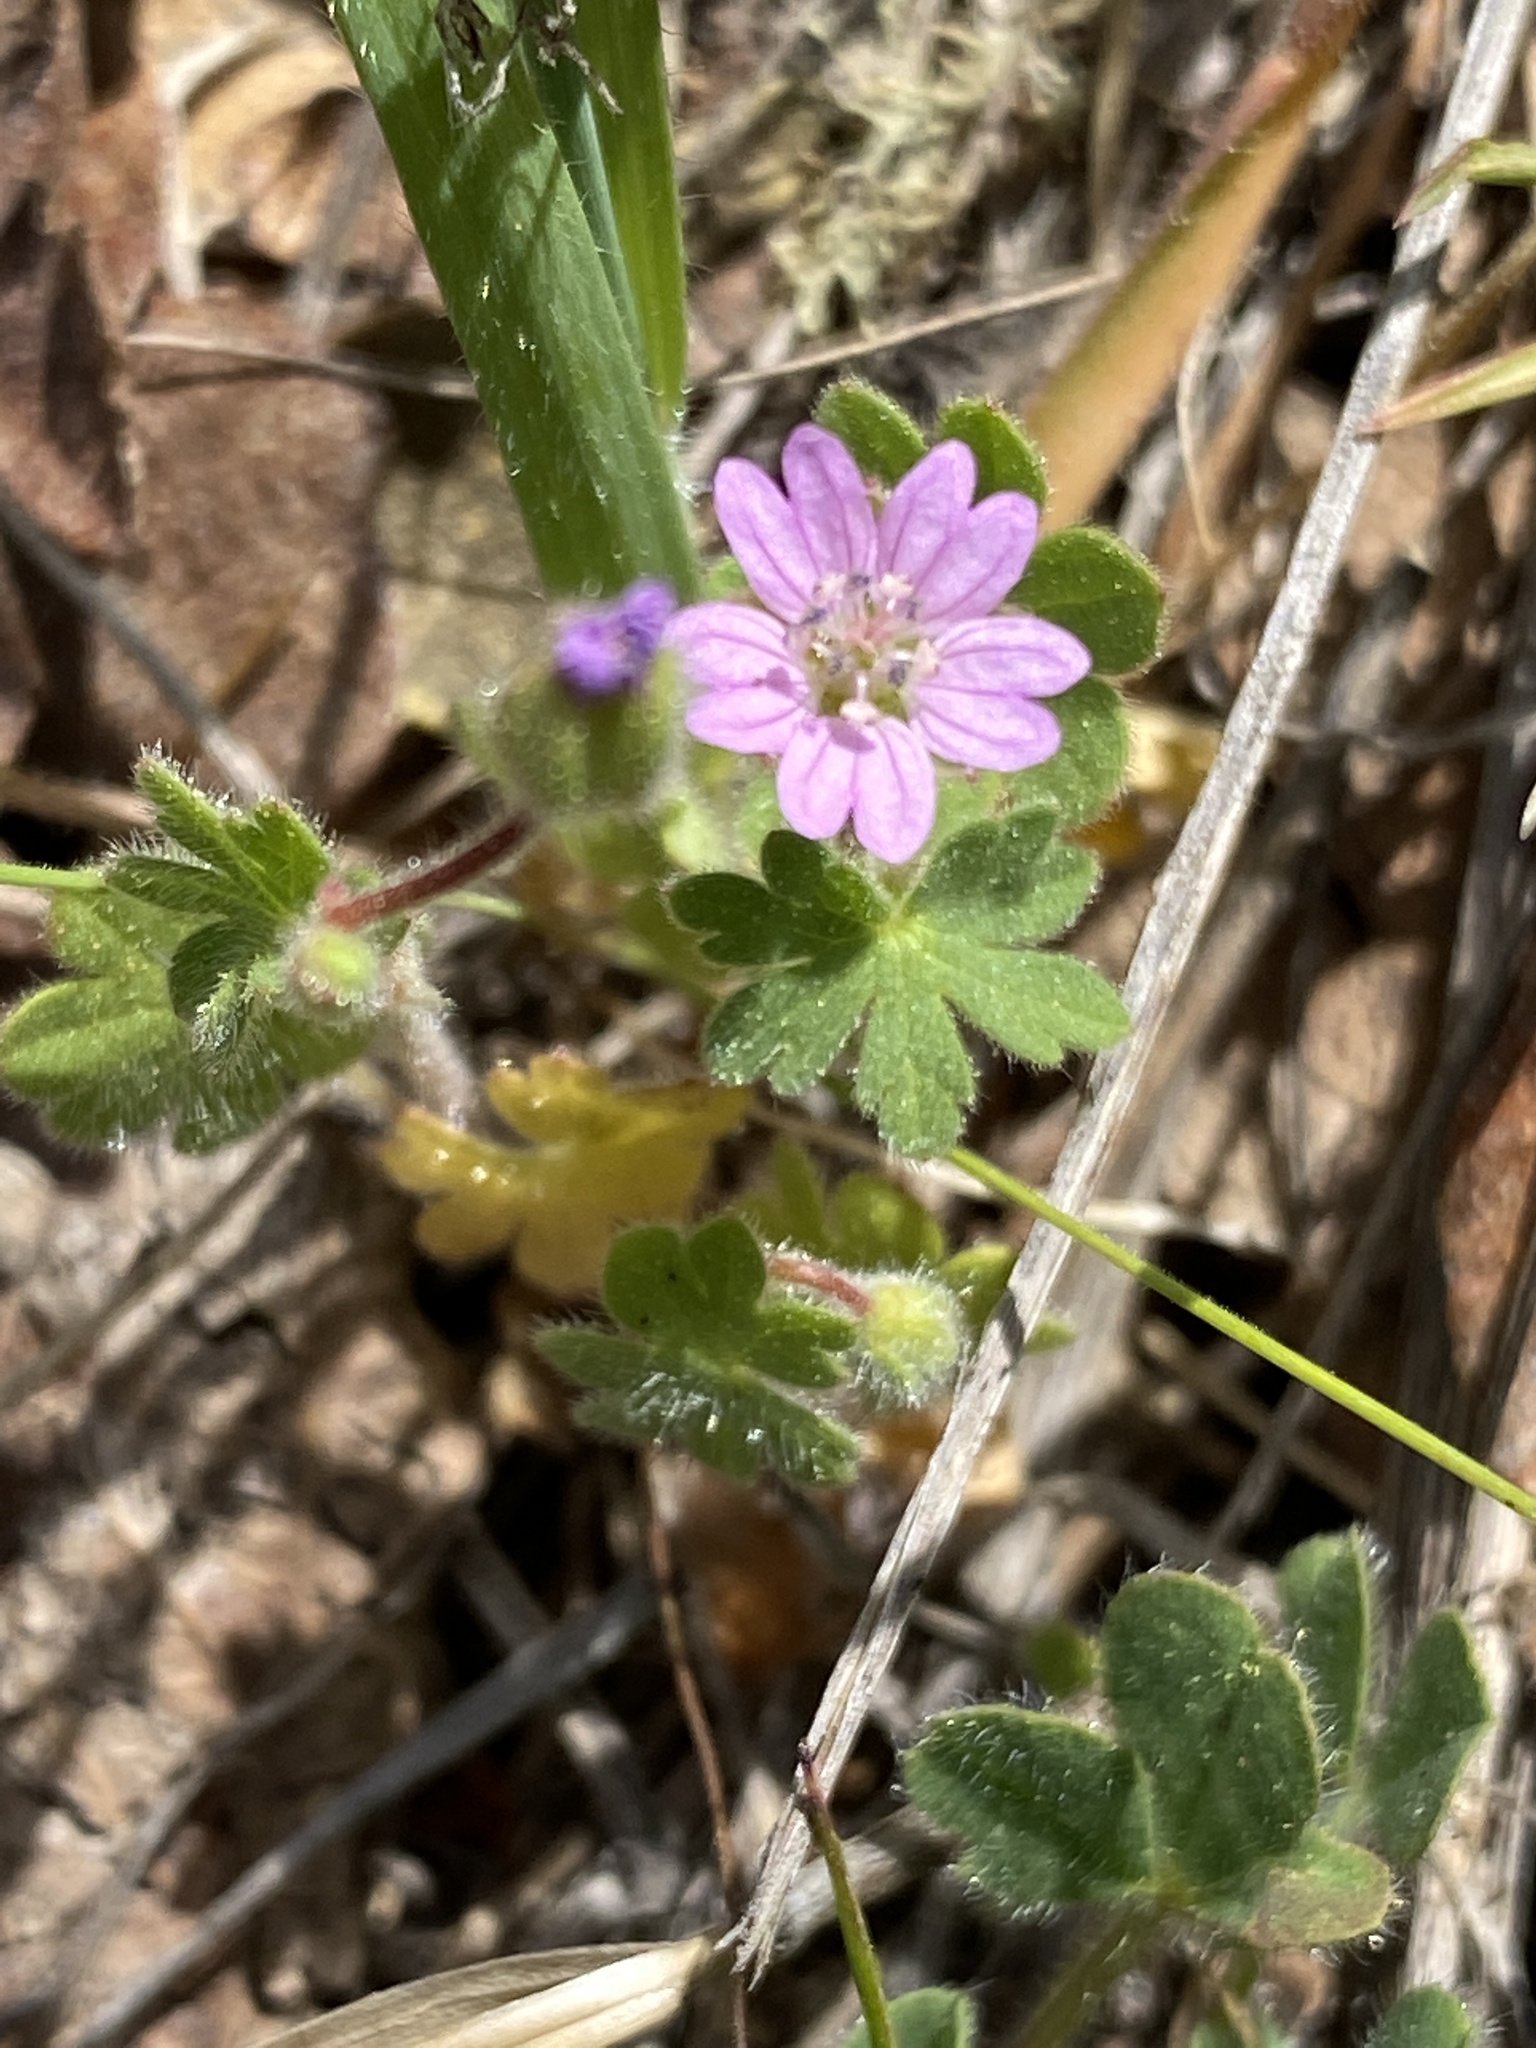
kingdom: Plantae
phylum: Tracheophyta
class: Magnoliopsida
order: Geraniales
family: Geraniaceae
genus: Geranium
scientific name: Geranium molle
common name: Dove's-foot crane's-bill
